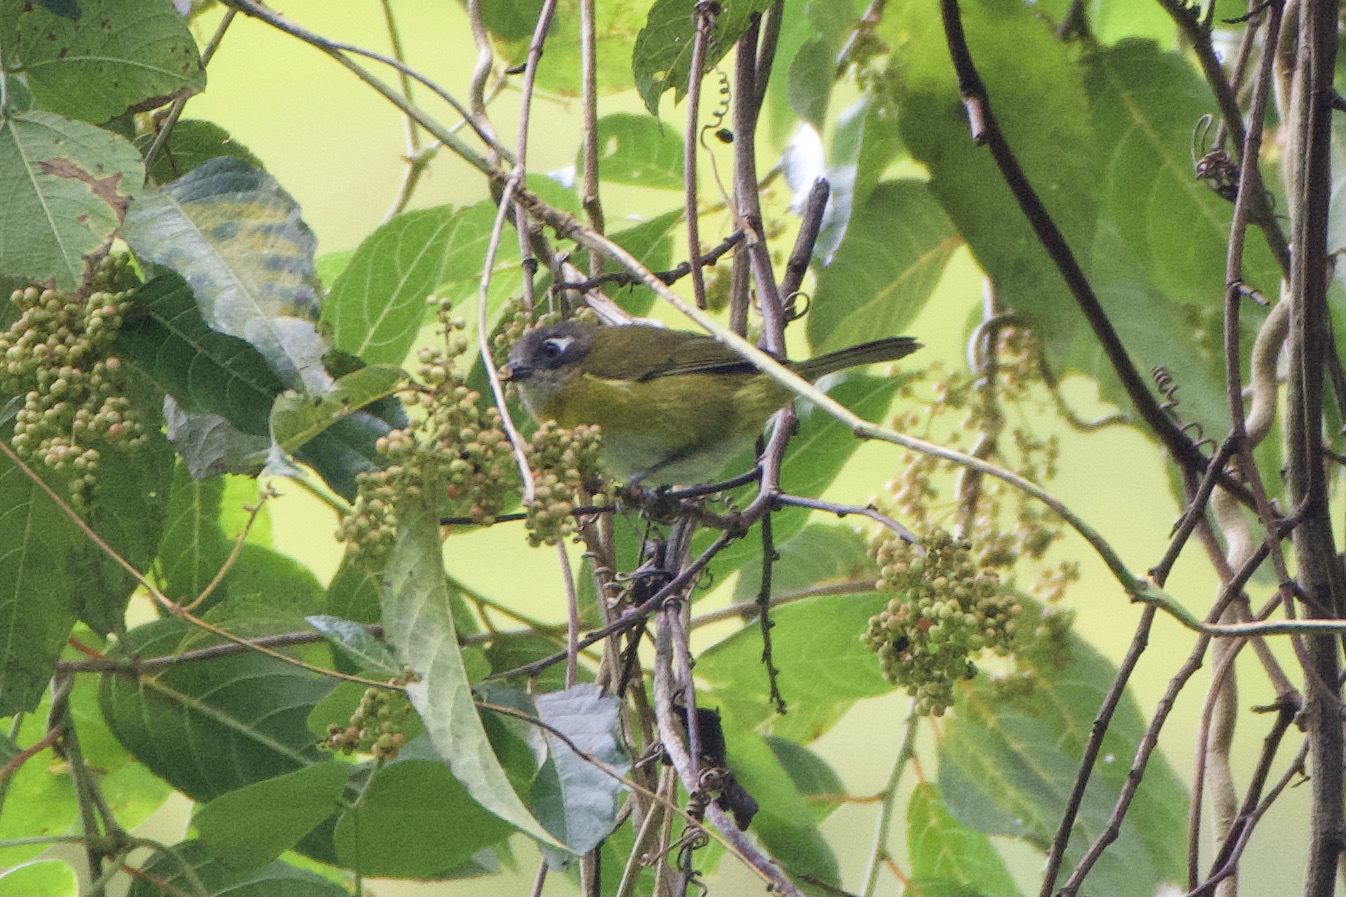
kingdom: Animalia
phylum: Chordata
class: Aves
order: Passeriformes
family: Passerellidae
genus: Chlorospingus
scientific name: Chlorospingus flavopectus
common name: Common chlorospingus
